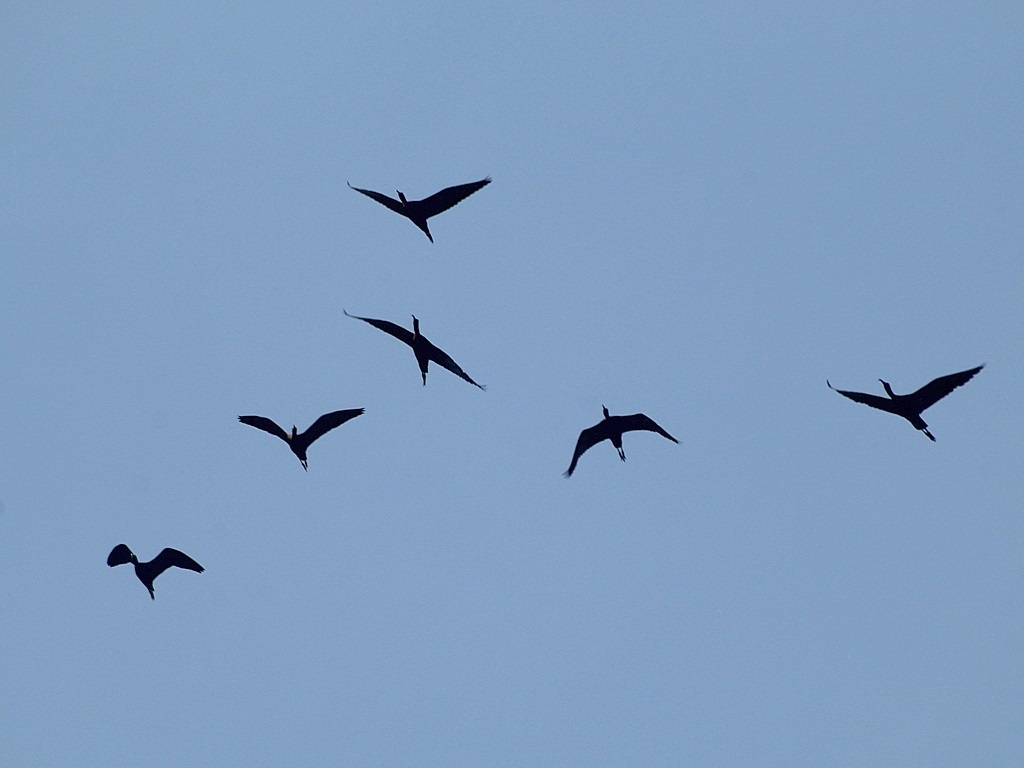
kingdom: Animalia
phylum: Chordata
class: Aves
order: Pelecaniformes
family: Threskiornithidae
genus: Plegadis
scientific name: Plegadis falcinellus
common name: Glossy ibis
